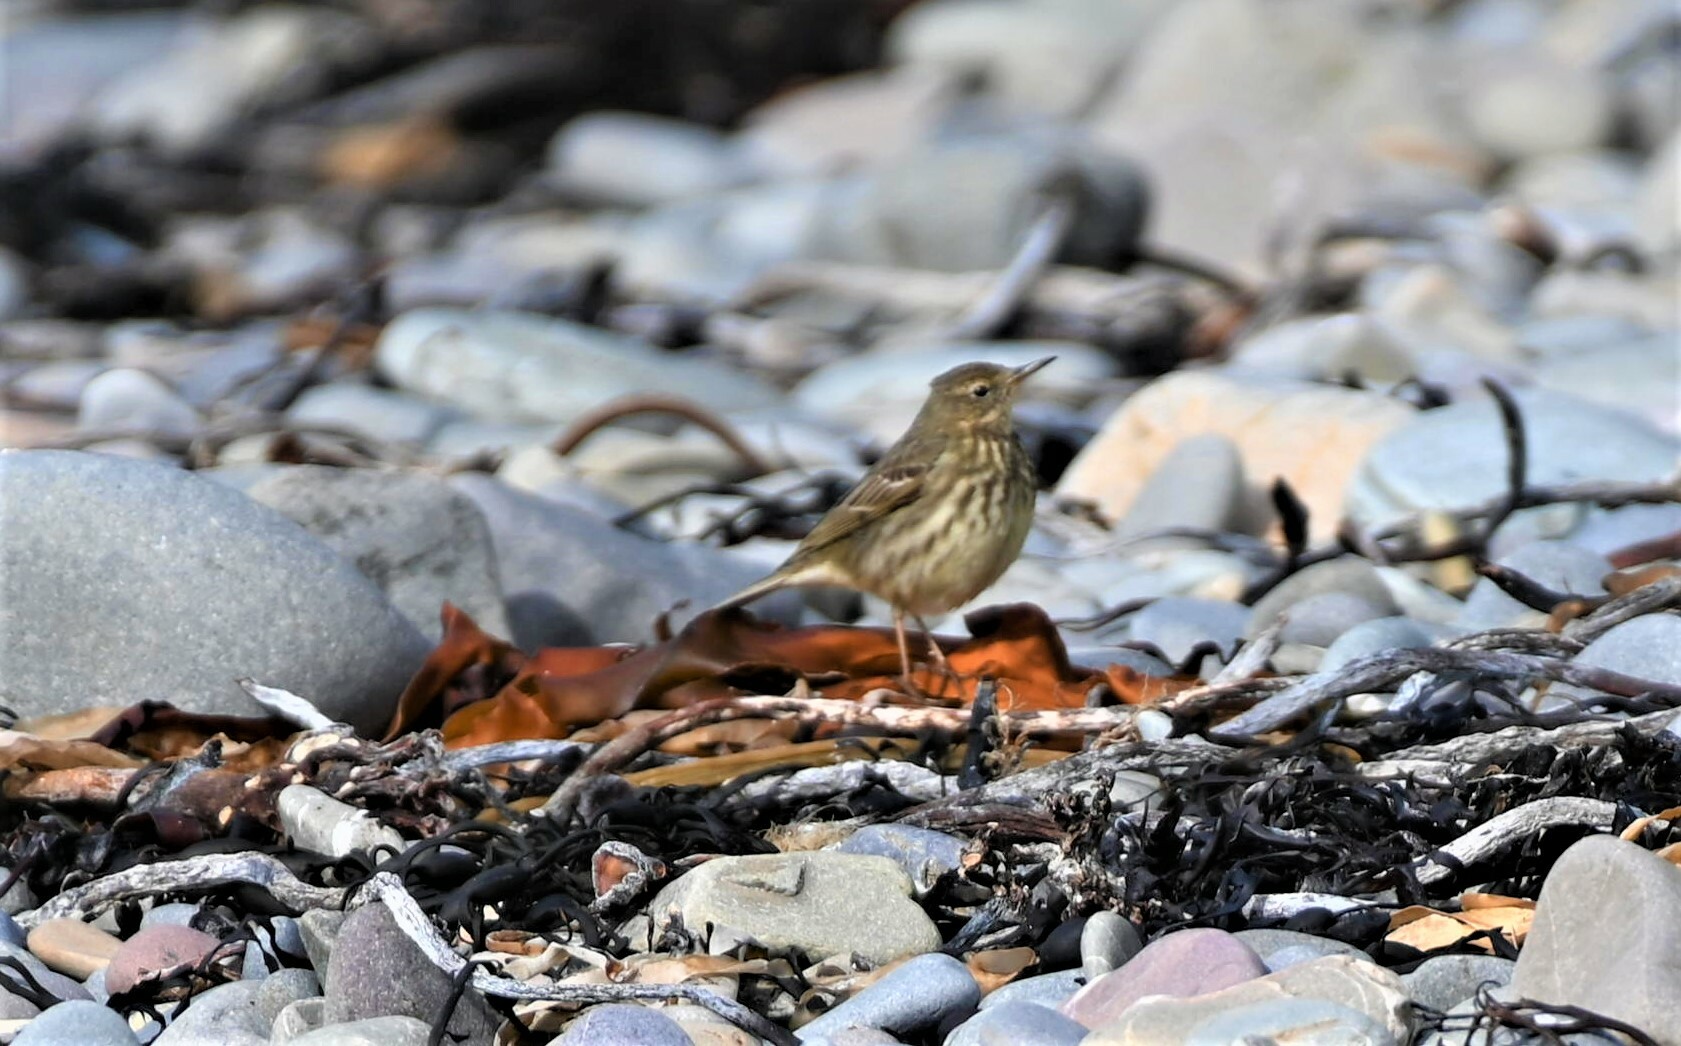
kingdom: Animalia
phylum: Chordata
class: Aves
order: Passeriformes
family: Motacillidae
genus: Anthus
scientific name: Anthus petrosus
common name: Eurasian rock pipit
